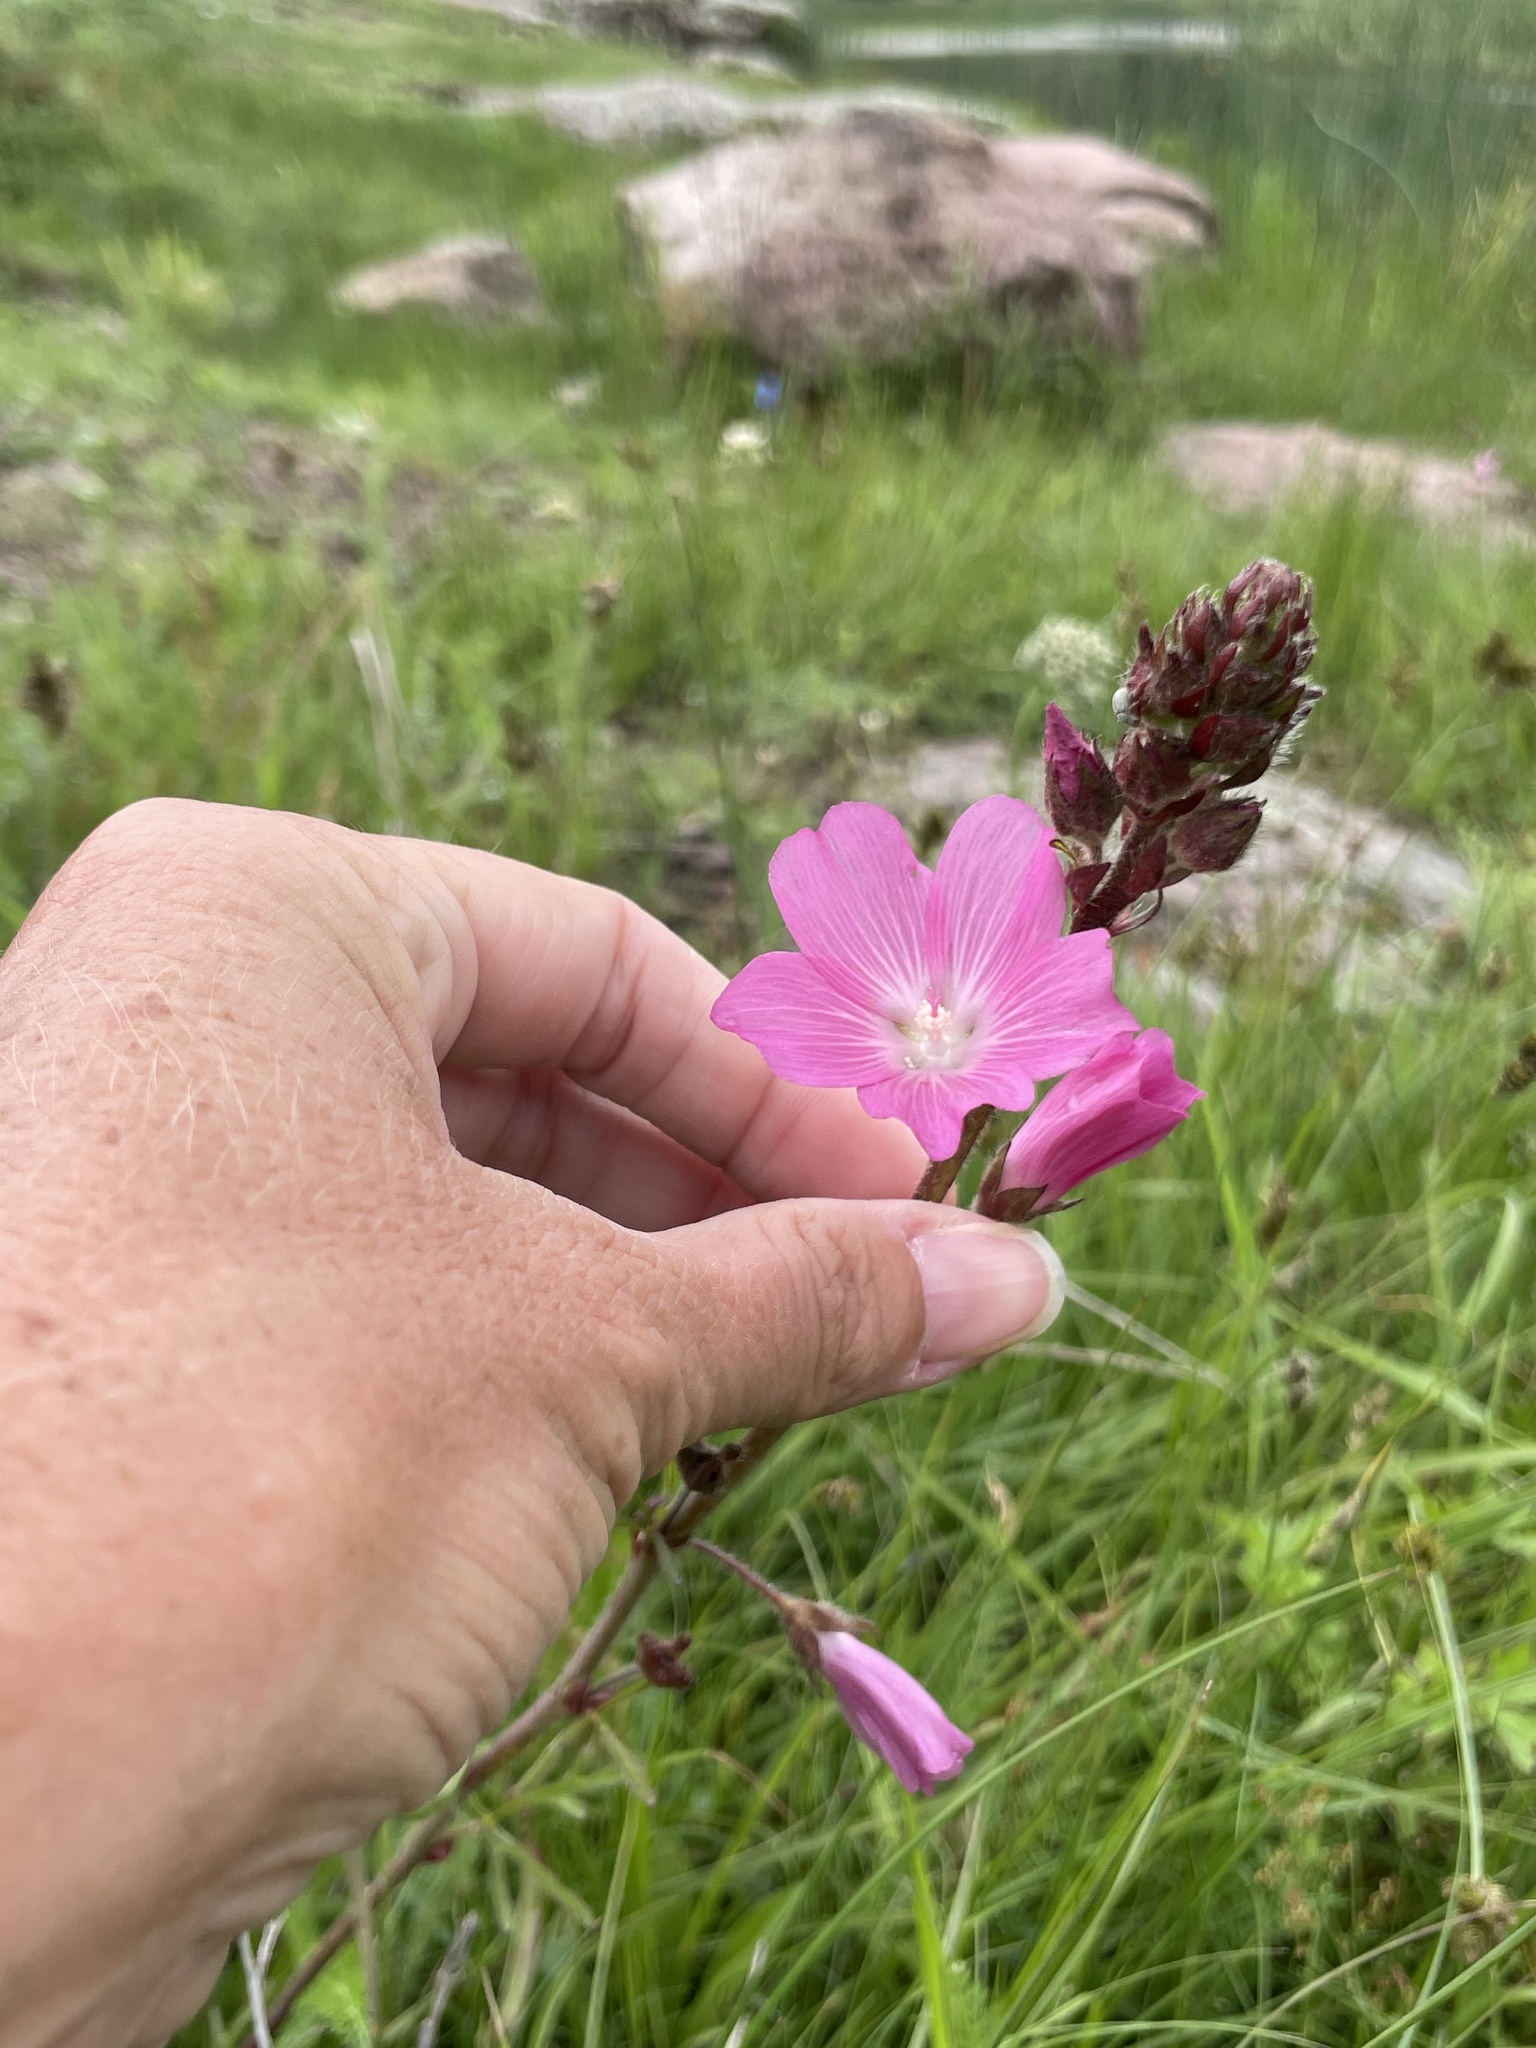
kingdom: Plantae
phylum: Tracheophyta
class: Magnoliopsida
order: Malvales
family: Malvaceae
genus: Sidalcea
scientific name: Sidalcea neomexicana
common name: New mexico checker
